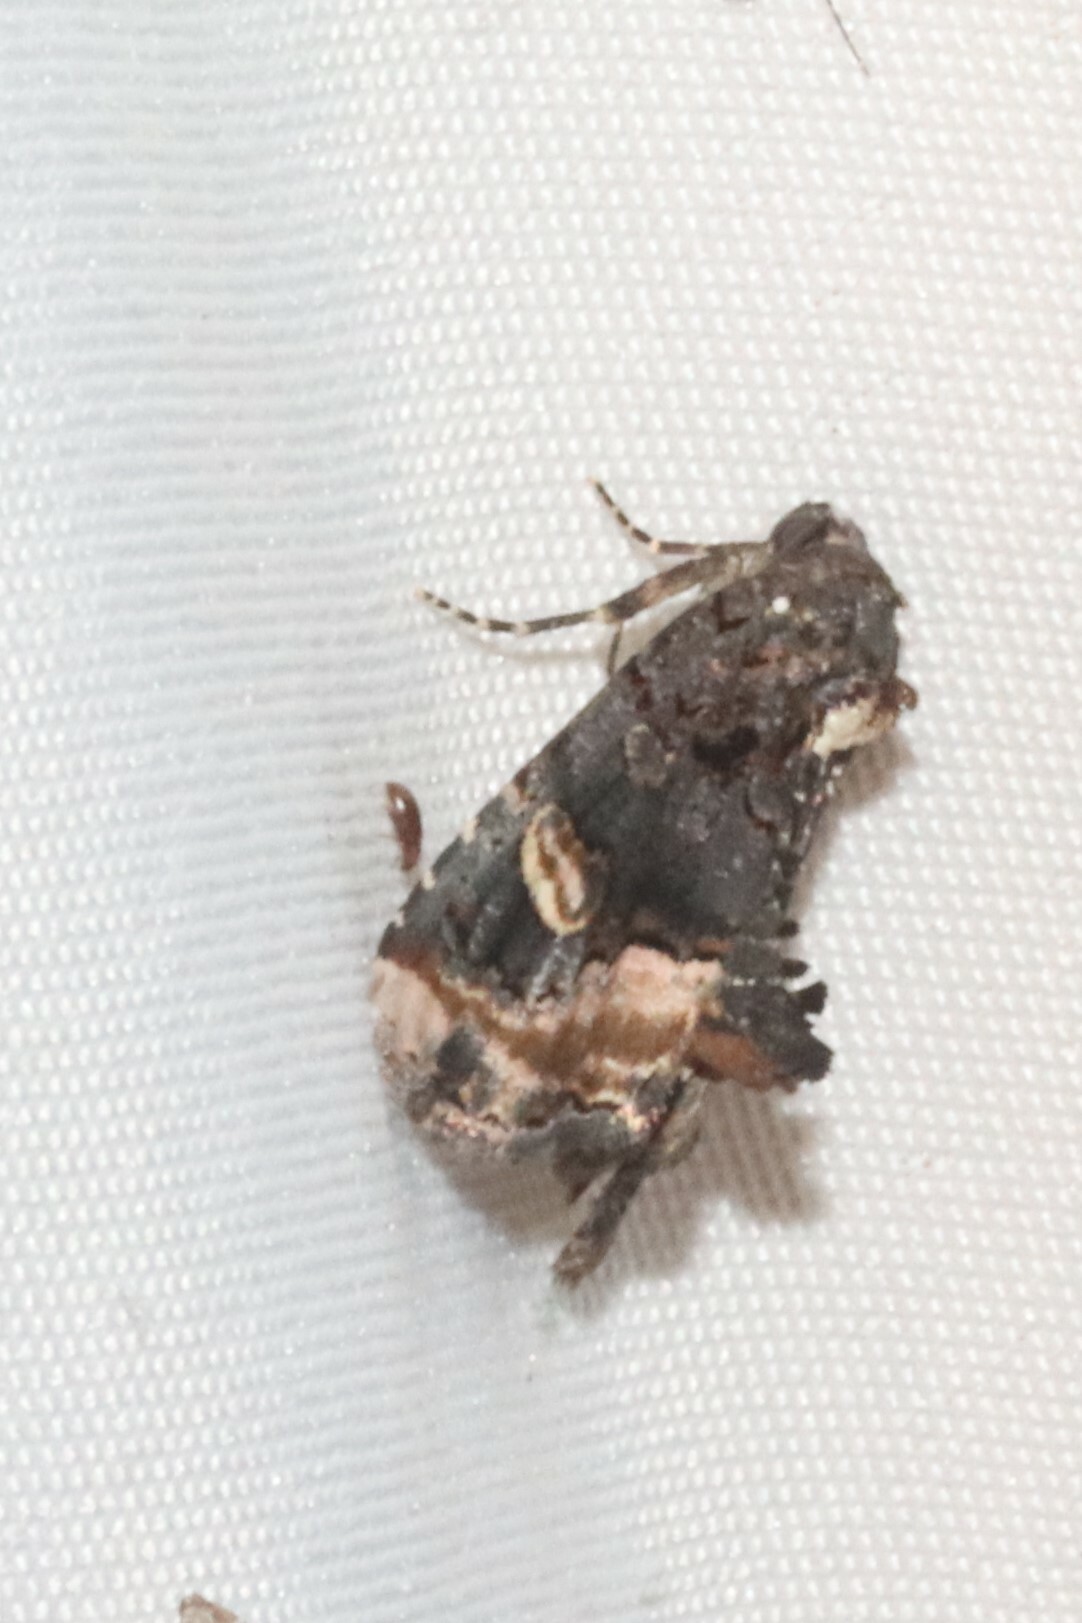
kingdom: Animalia
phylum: Arthropoda
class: Insecta
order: Lepidoptera
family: Noctuidae
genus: Homophoberia
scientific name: Homophoberia apicosa
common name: Black wedge-spot
